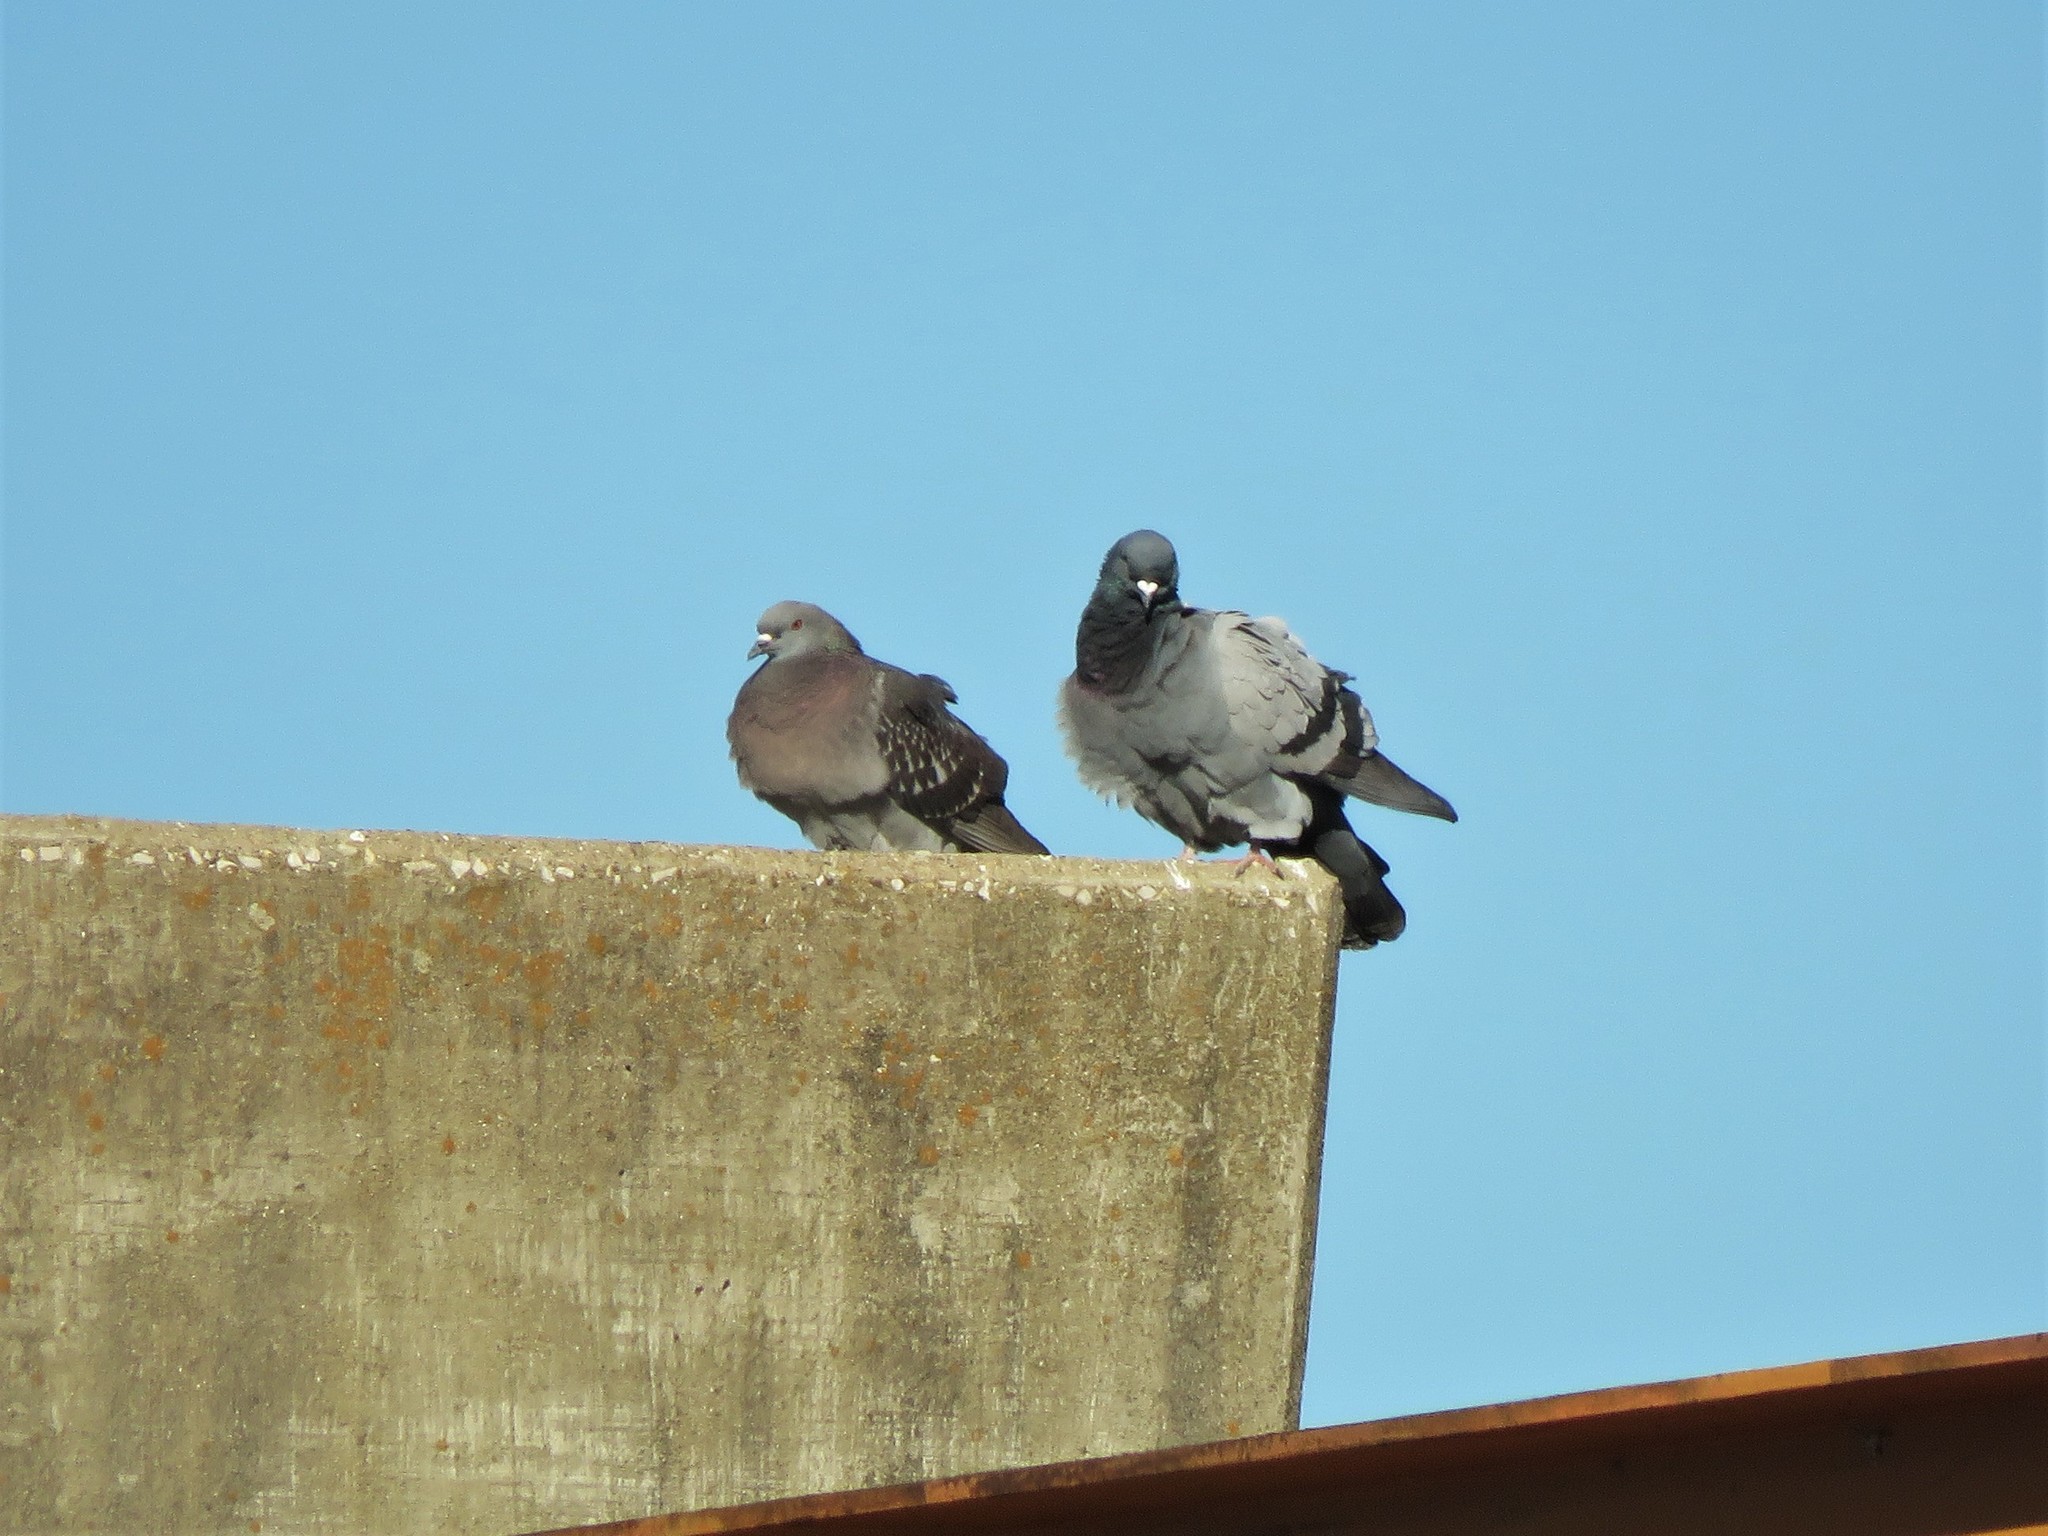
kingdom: Animalia
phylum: Chordata
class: Aves
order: Columbiformes
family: Columbidae
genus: Columba
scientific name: Columba livia
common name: Rock pigeon
